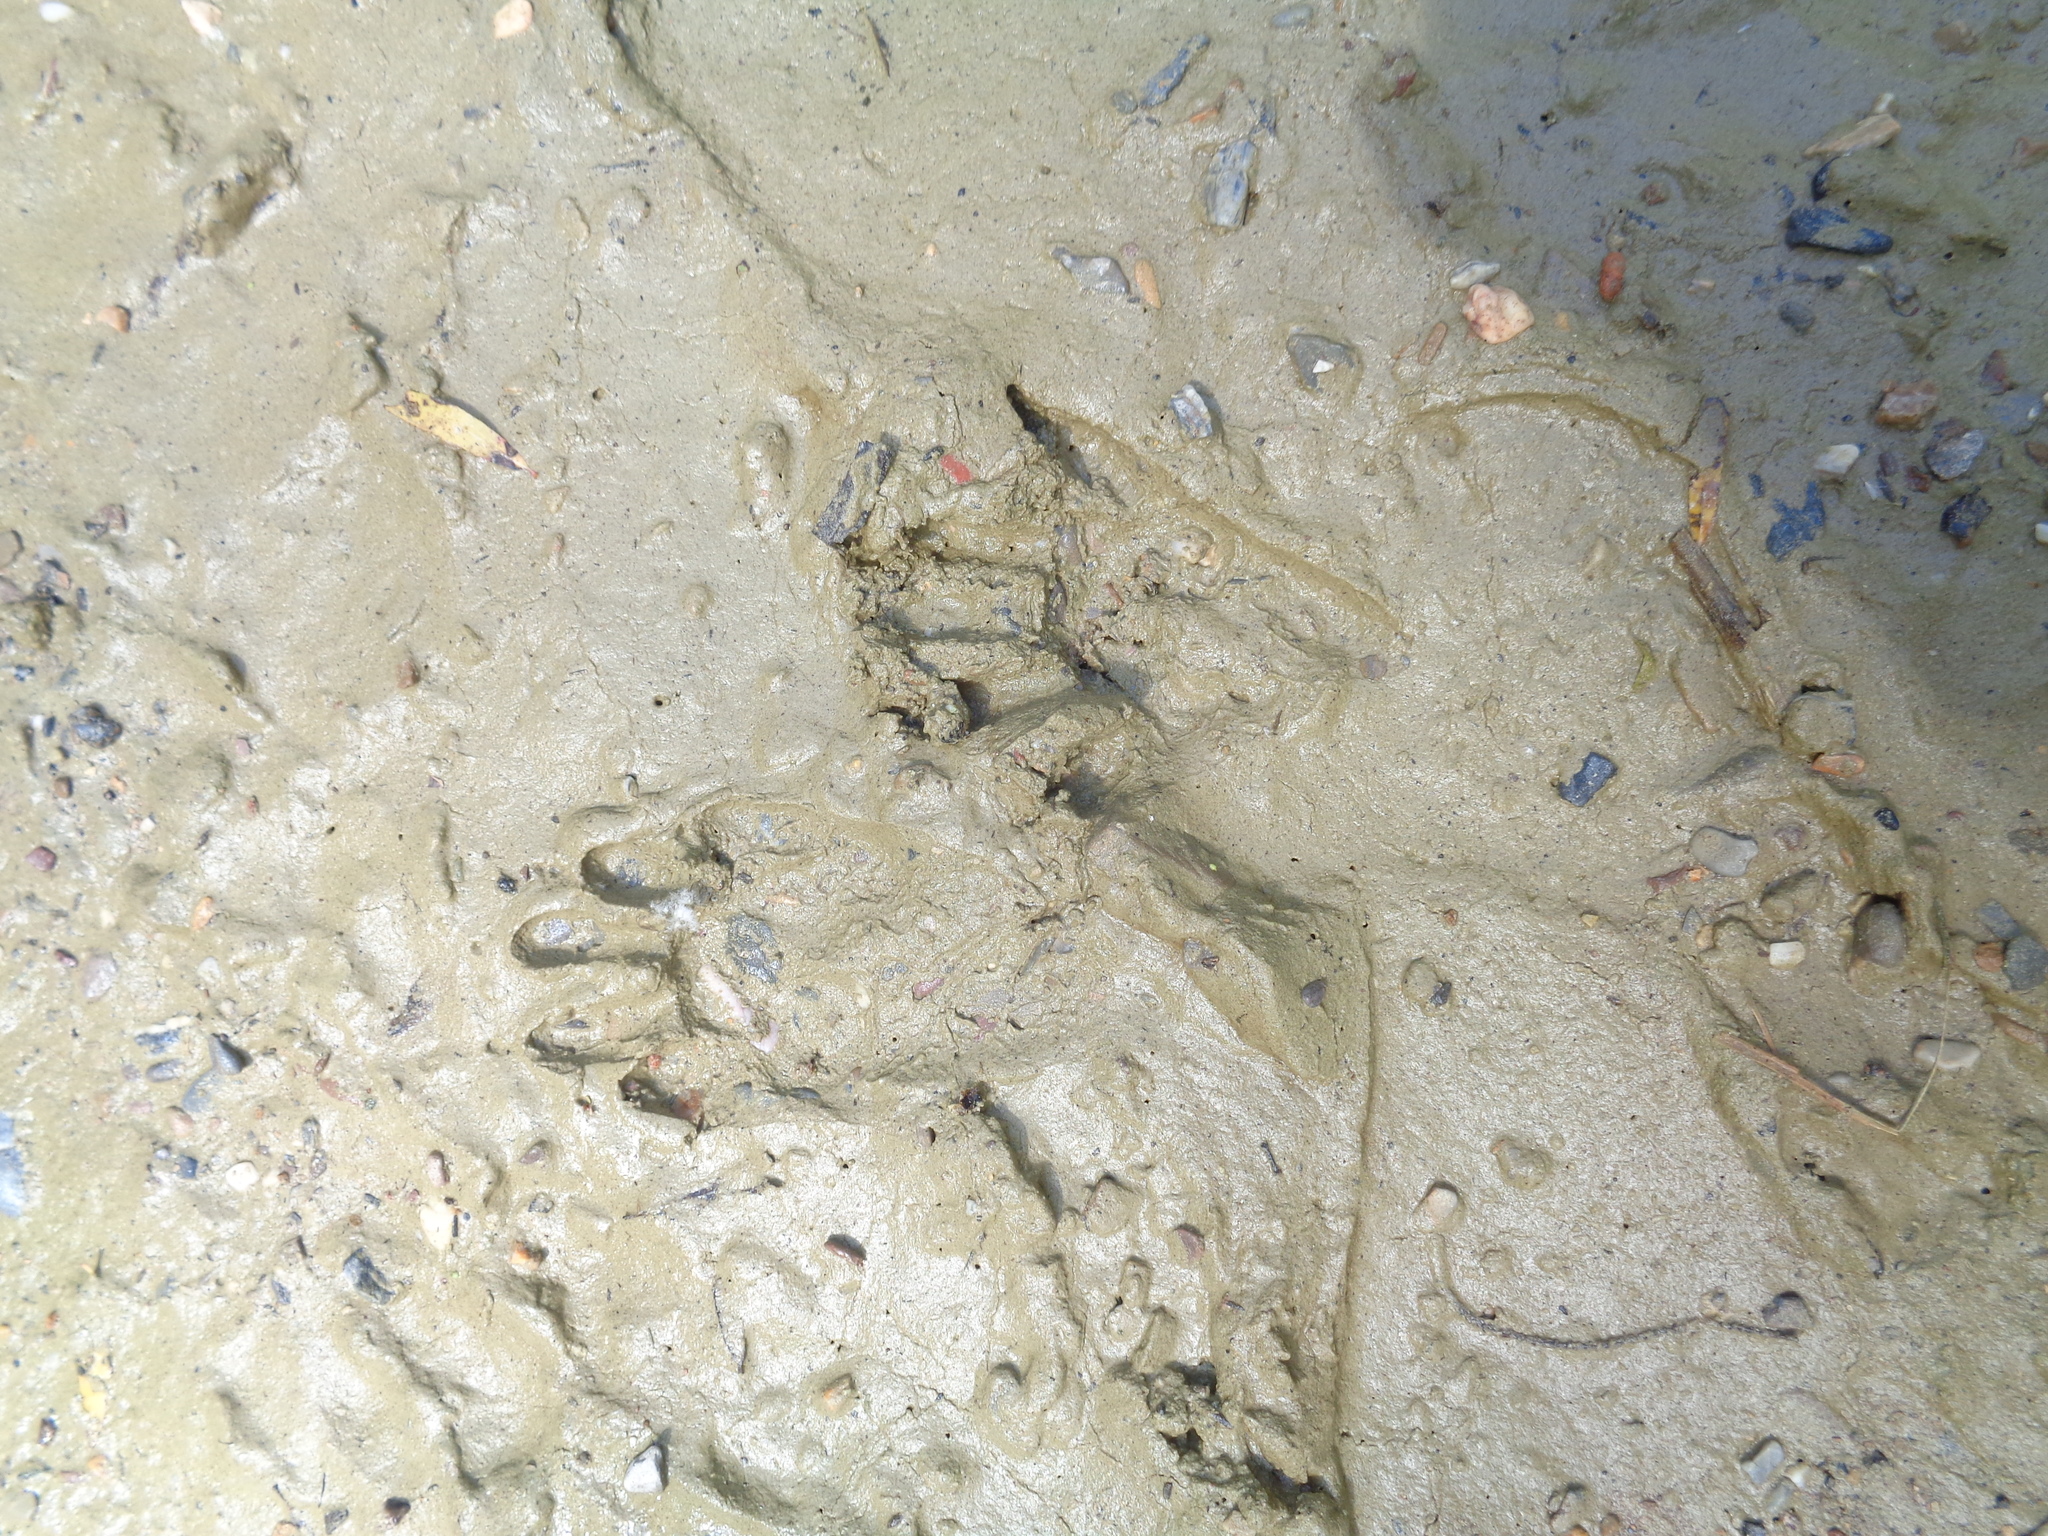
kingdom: Animalia
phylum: Chordata
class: Mammalia
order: Carnivora
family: Procyonidae
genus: Procyon
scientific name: Procyon lotor
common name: Raccoon
